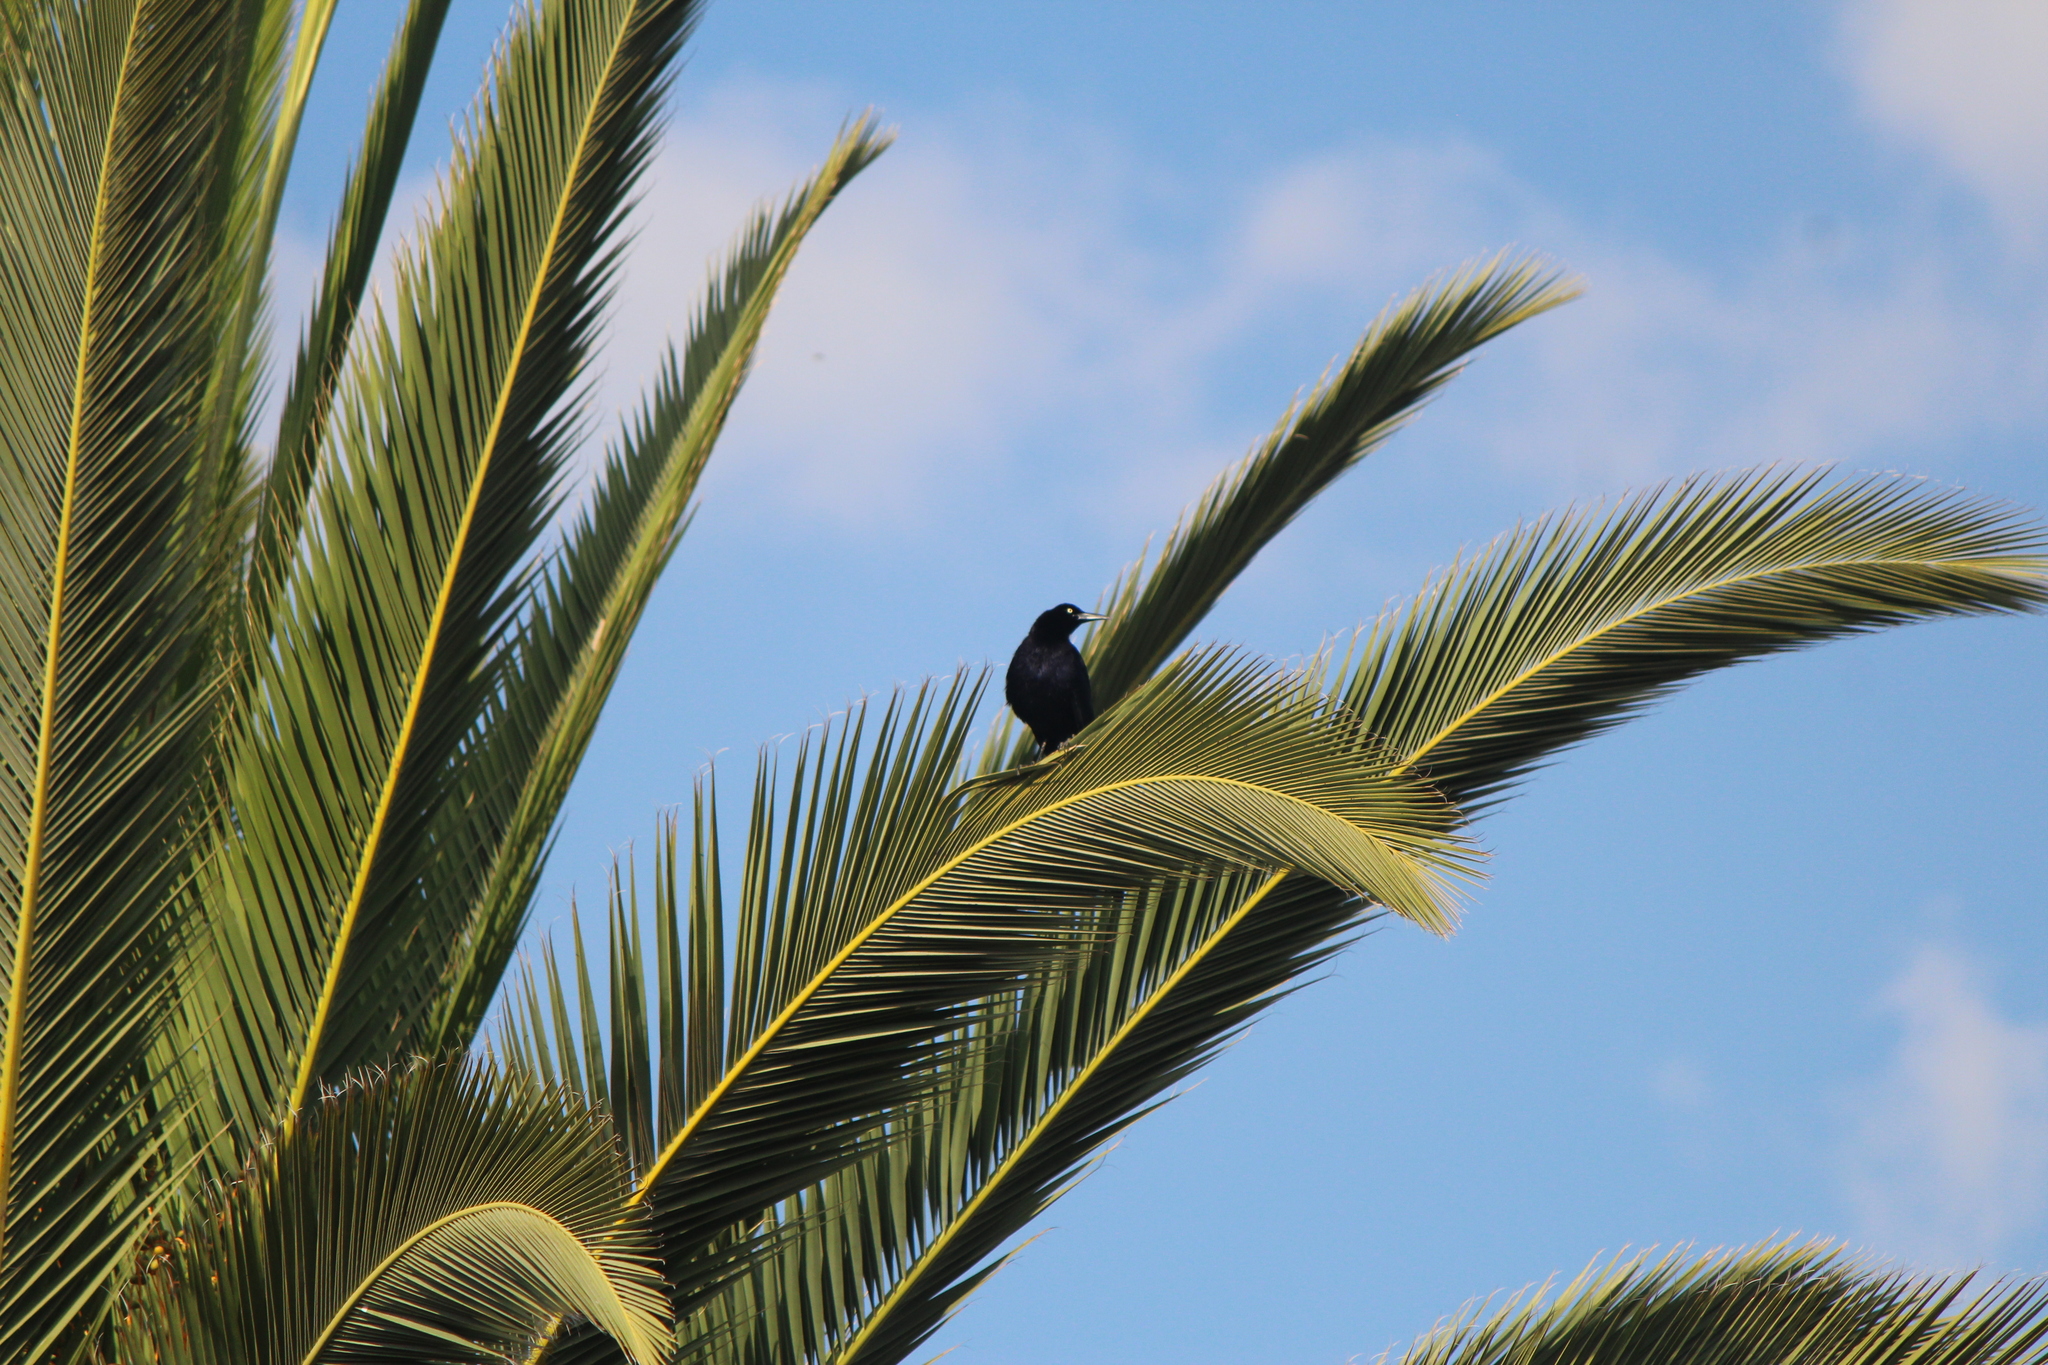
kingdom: Animalia
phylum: Chordata
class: Aves
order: Passeriformes
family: Icteridae
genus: Quiscalus
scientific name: Quiscalus mexicanus
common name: Great-tailed grackle
